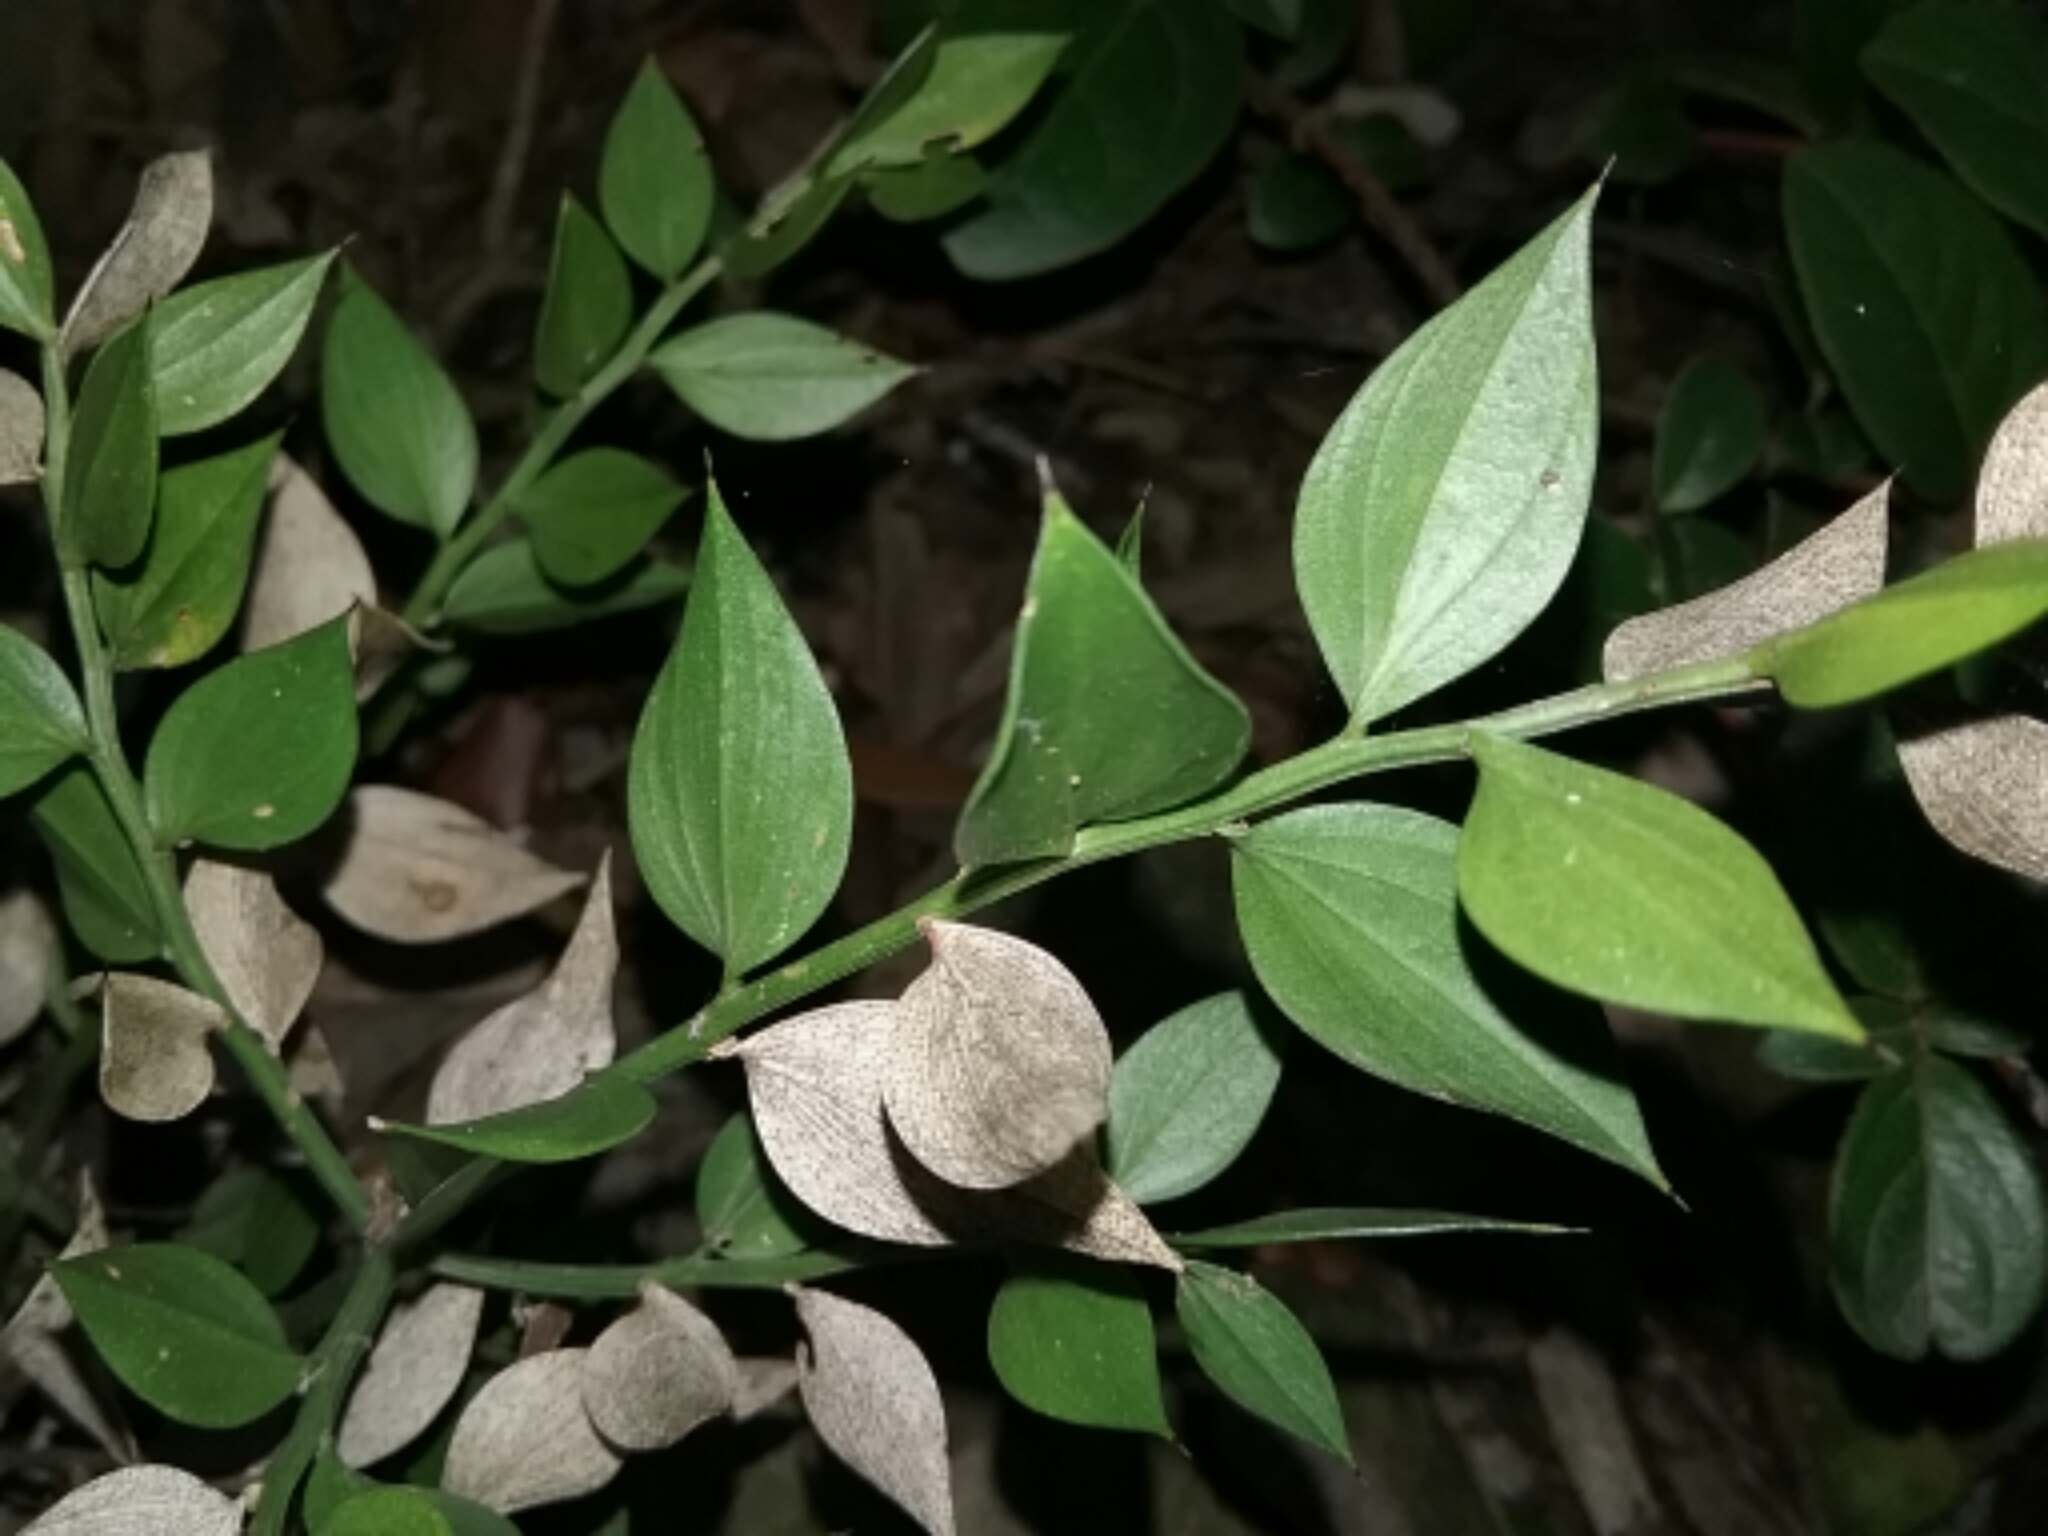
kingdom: Plantae
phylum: Tracheophyta
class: Liliopsida
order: Asparagales
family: Asparagaceae
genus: Ruscus
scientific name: Ruscus aculeatus
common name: Butcher's-broom
